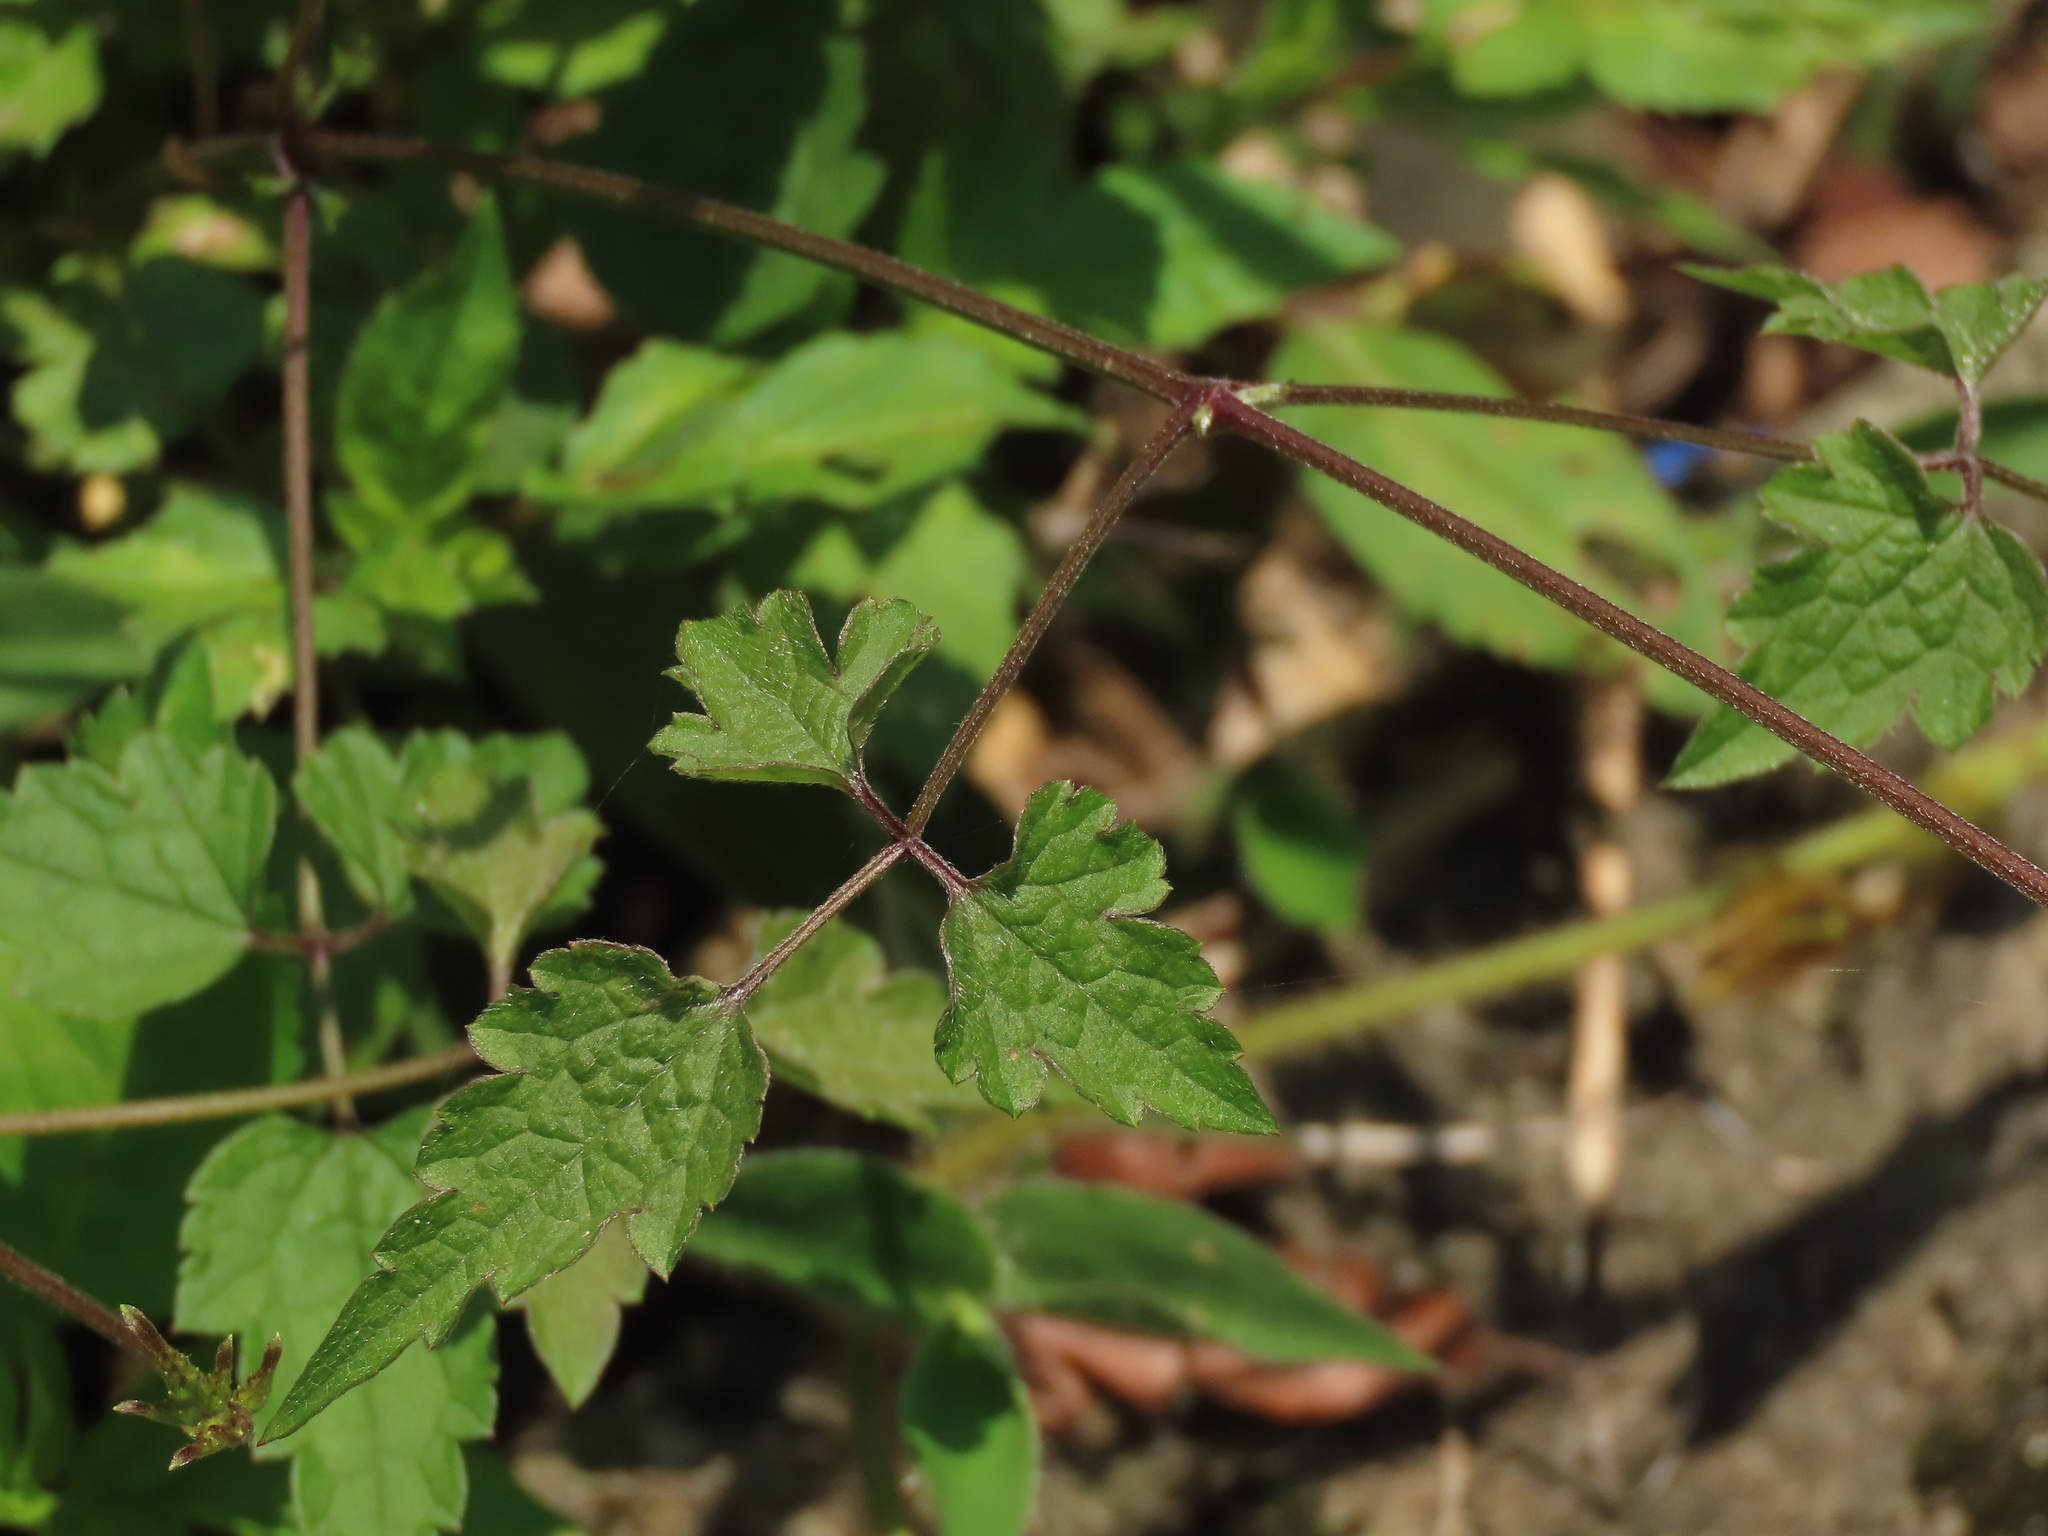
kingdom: Plantae
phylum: Tracheophyta
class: Magnoliopsida
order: Ranunculales
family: Ranunculaceae
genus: Clematis
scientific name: Clematis grata
